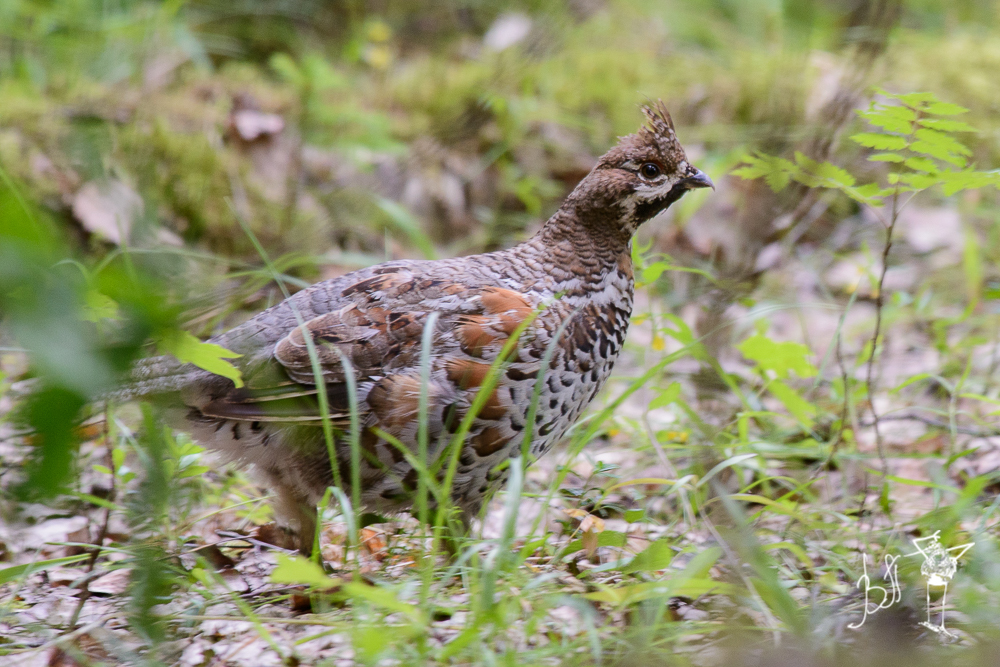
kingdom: Animalia
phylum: Chordata
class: Aves
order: Galliformes
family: Phasianidae
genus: Tetrastes
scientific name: Tetrastes bonasia
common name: Hazel grouse
